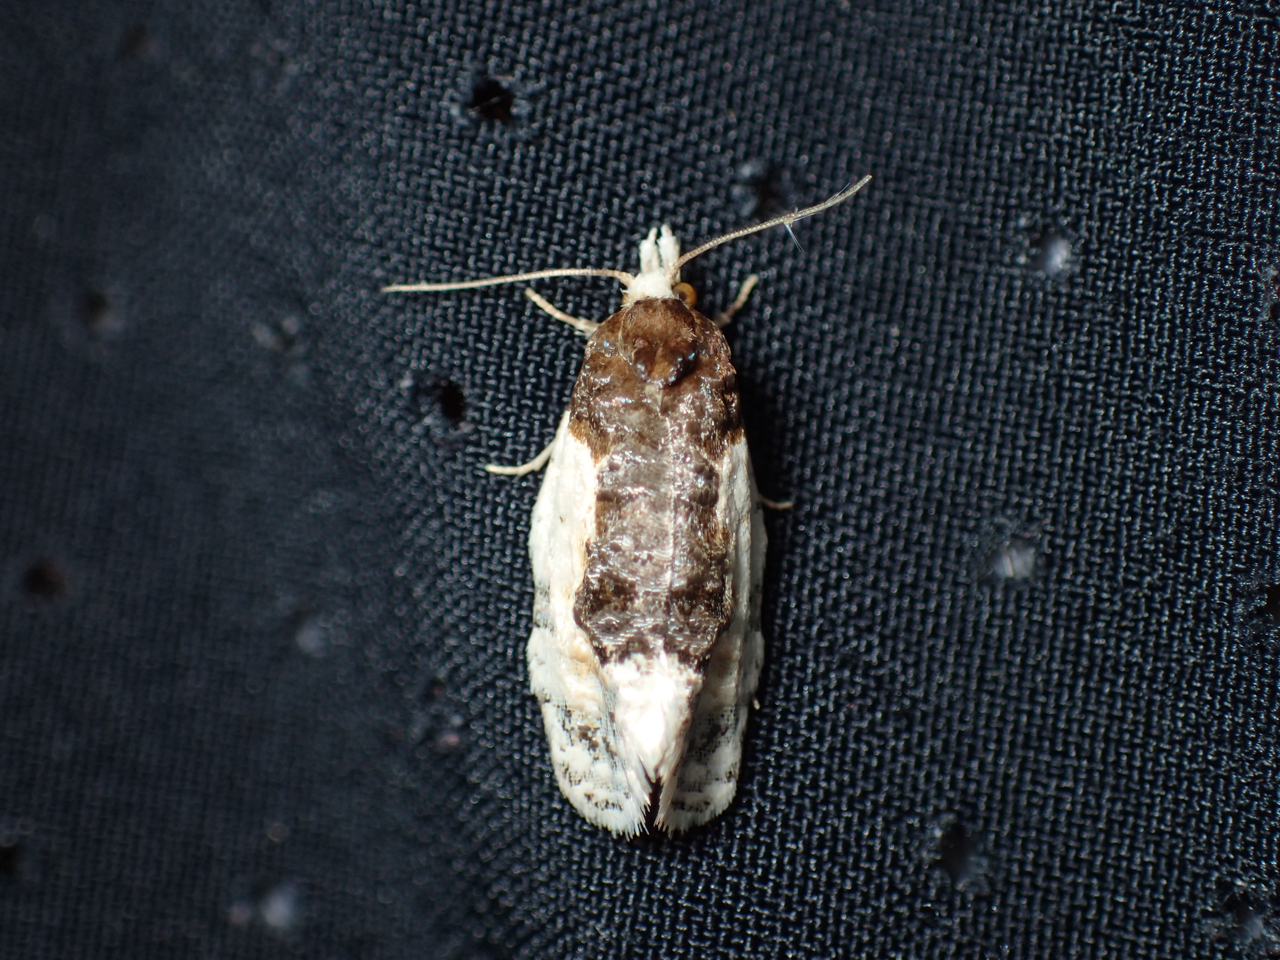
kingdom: Animalia
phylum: Arthropoda
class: Insecta
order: Lepidoptera
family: Tortricidae
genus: Henricus
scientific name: Henricus edwardsiana
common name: Contrasting henricus moth
